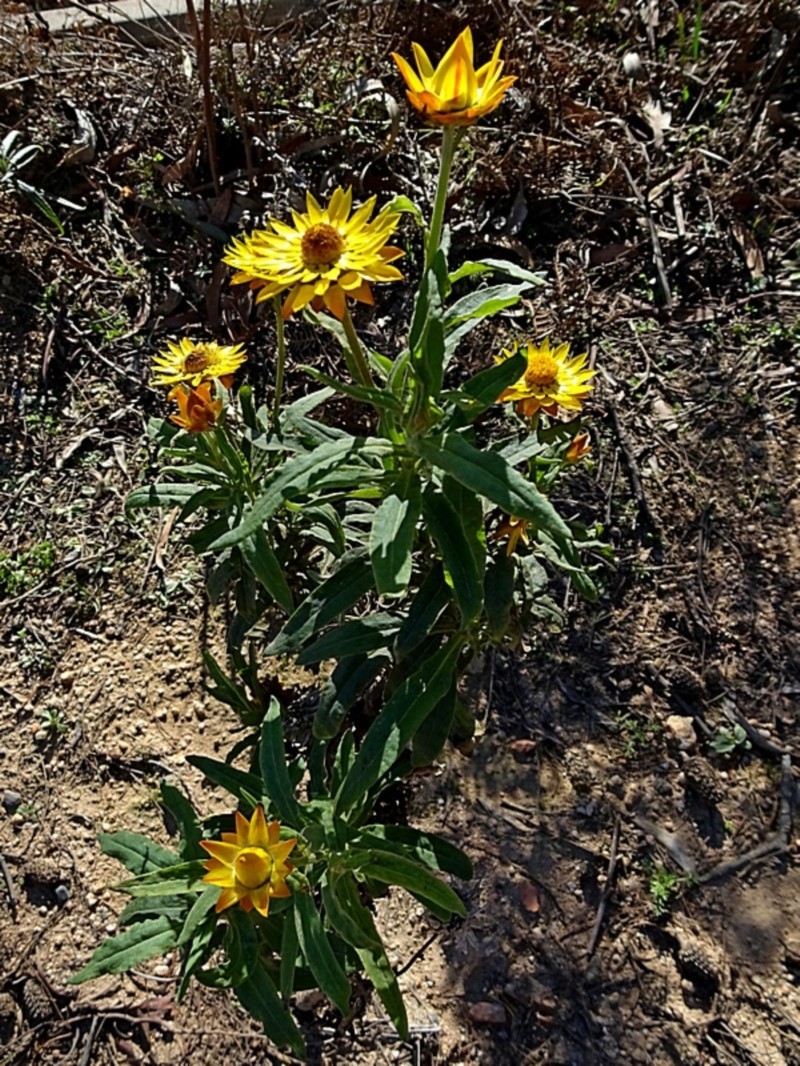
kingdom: Plantae
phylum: Tracheophyta
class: Magnoliopsida
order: Asterales
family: Asteraceae
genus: Xerochrysum
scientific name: Xerochrysum bracteatum
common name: Bracted strawflower
